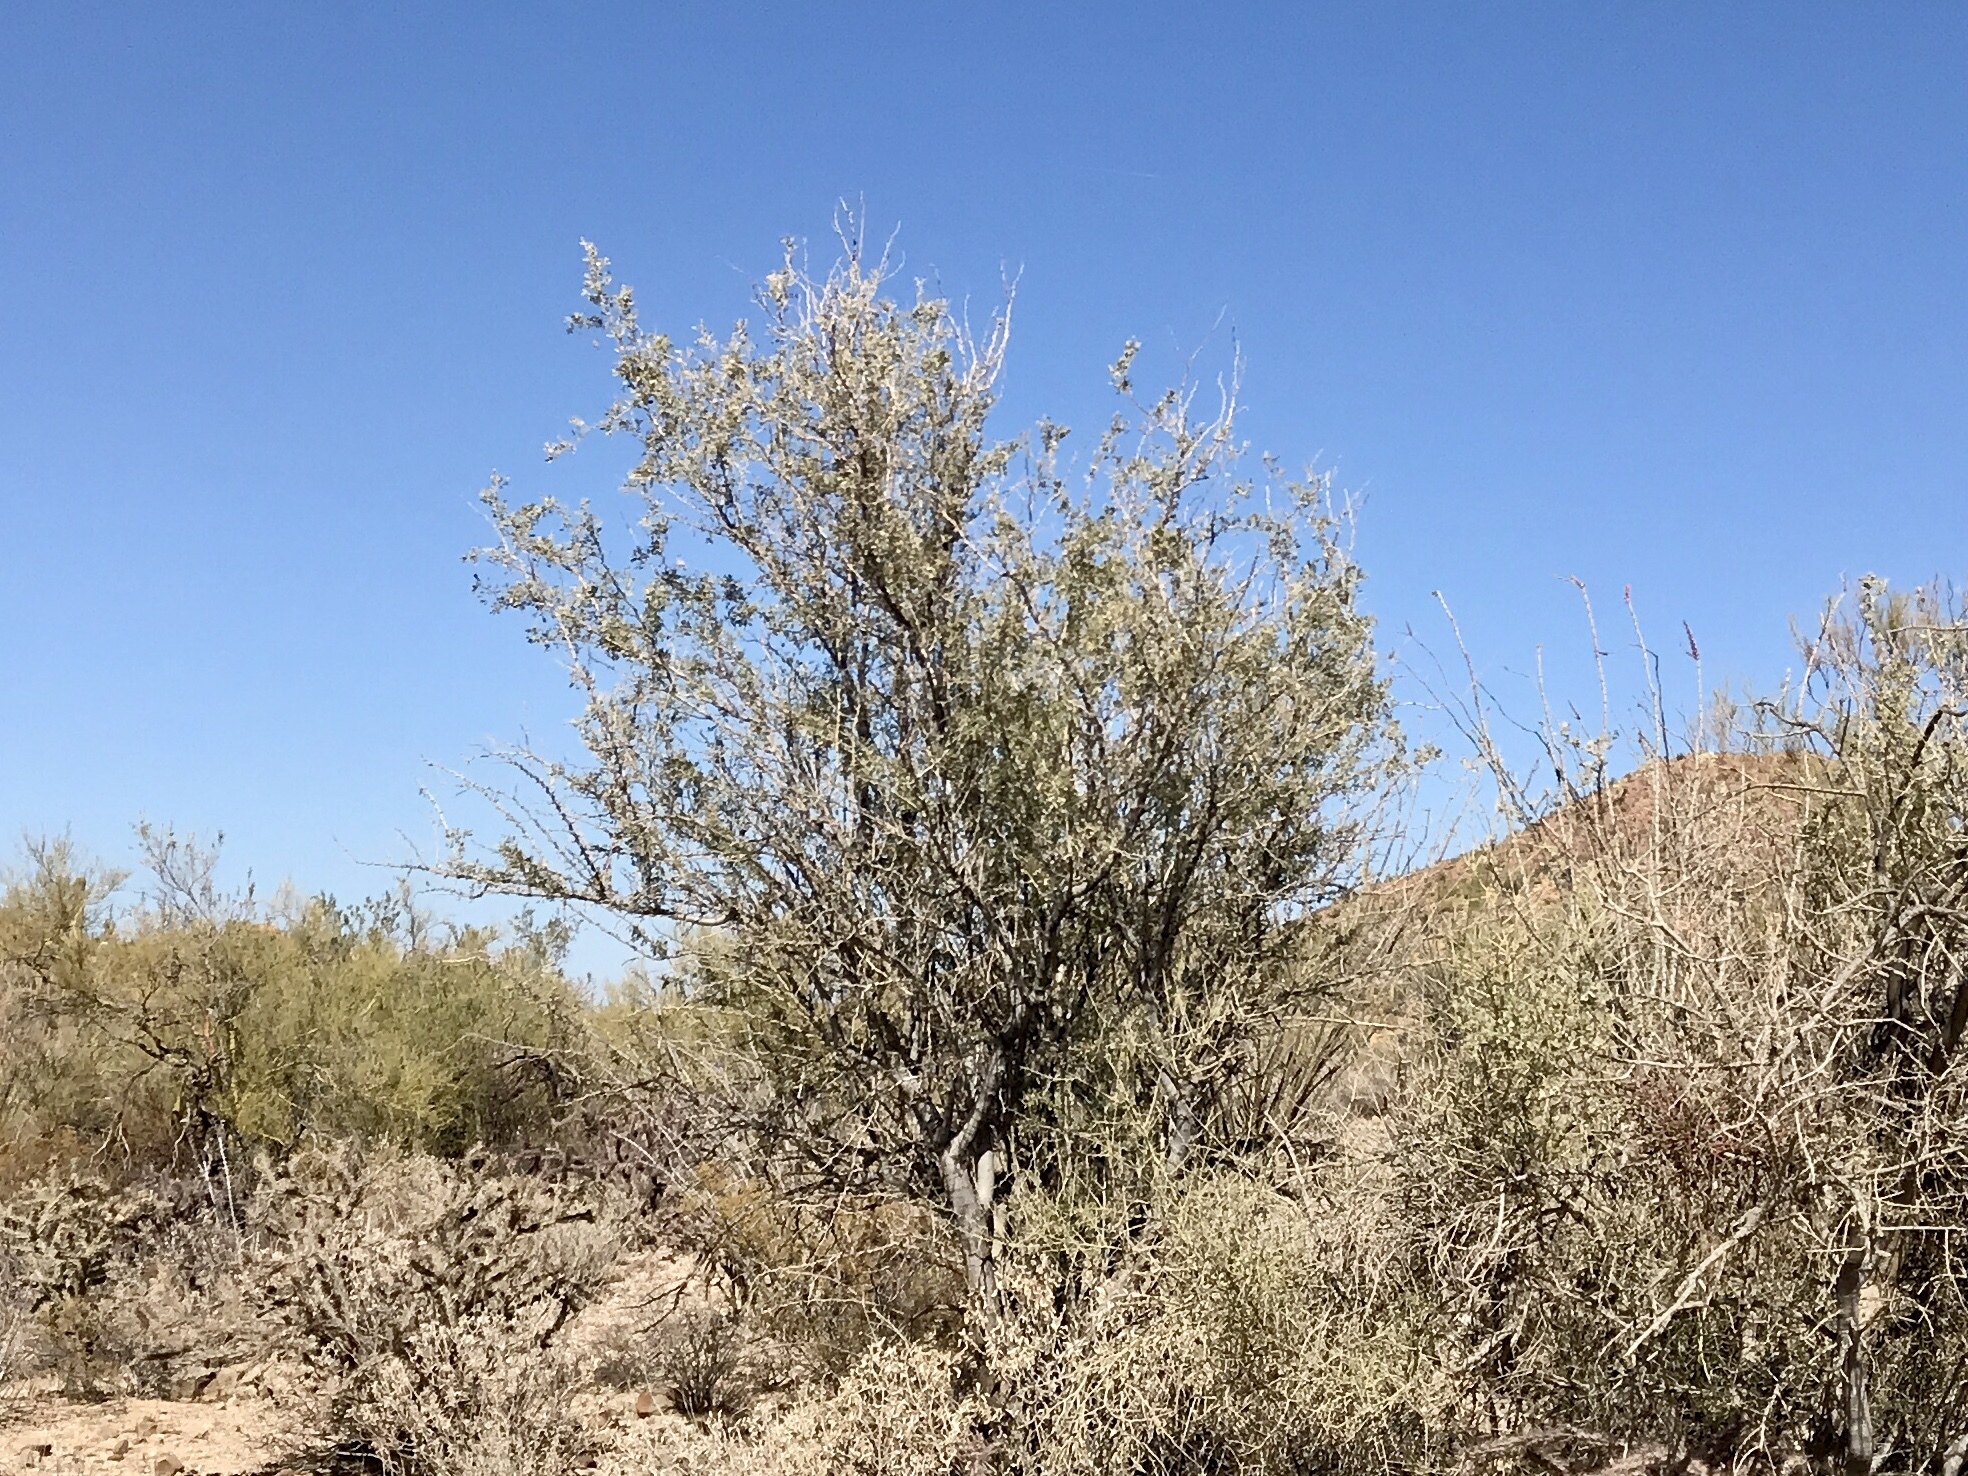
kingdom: Plantae
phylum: Tracheophyta
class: Magnoliopsida
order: Fabales
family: Fabaceae
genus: Olneya
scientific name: Olneya tesota
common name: Desert ironwood
